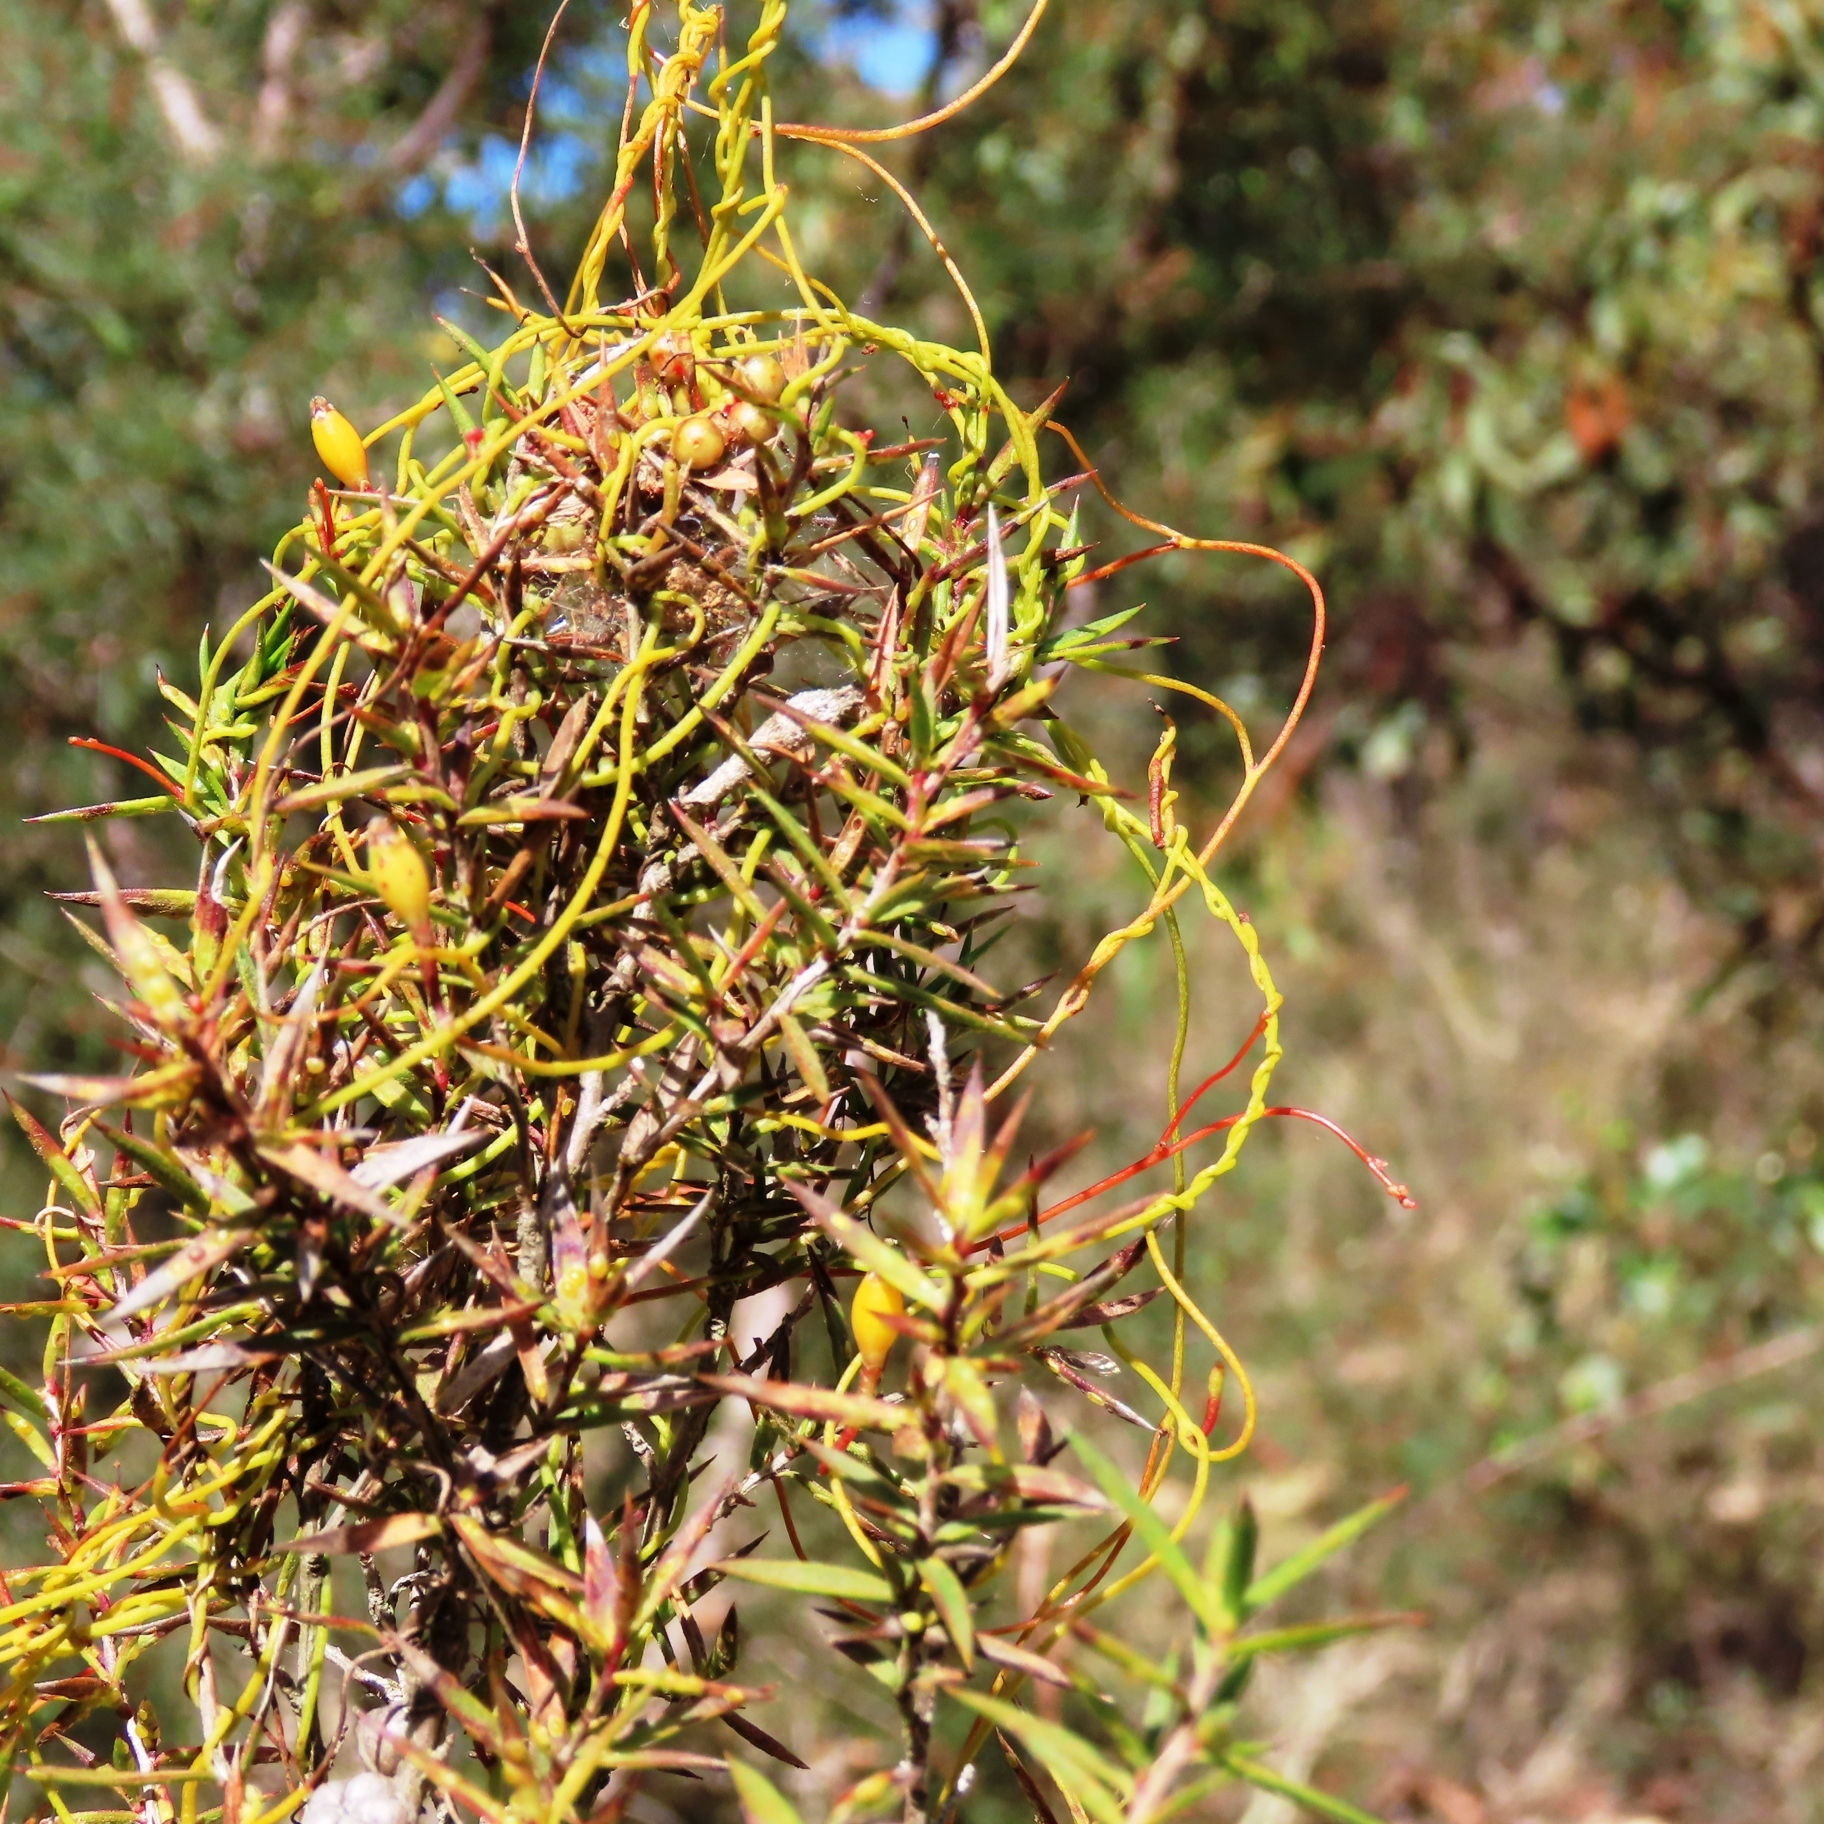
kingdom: Plantae
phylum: Tracheophyta
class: Magnoliopsida
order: Laurales
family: Lauraceae
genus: Cassytha
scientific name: Cassytha glabella
